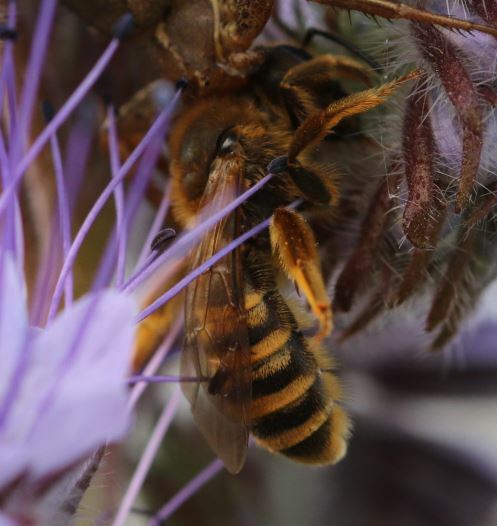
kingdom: Animalia
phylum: Arthropoda
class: Insecta
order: Hymenoptera
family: Halictidae
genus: Halictus
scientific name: Halictus scabiosae
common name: Great banded furrow bee
